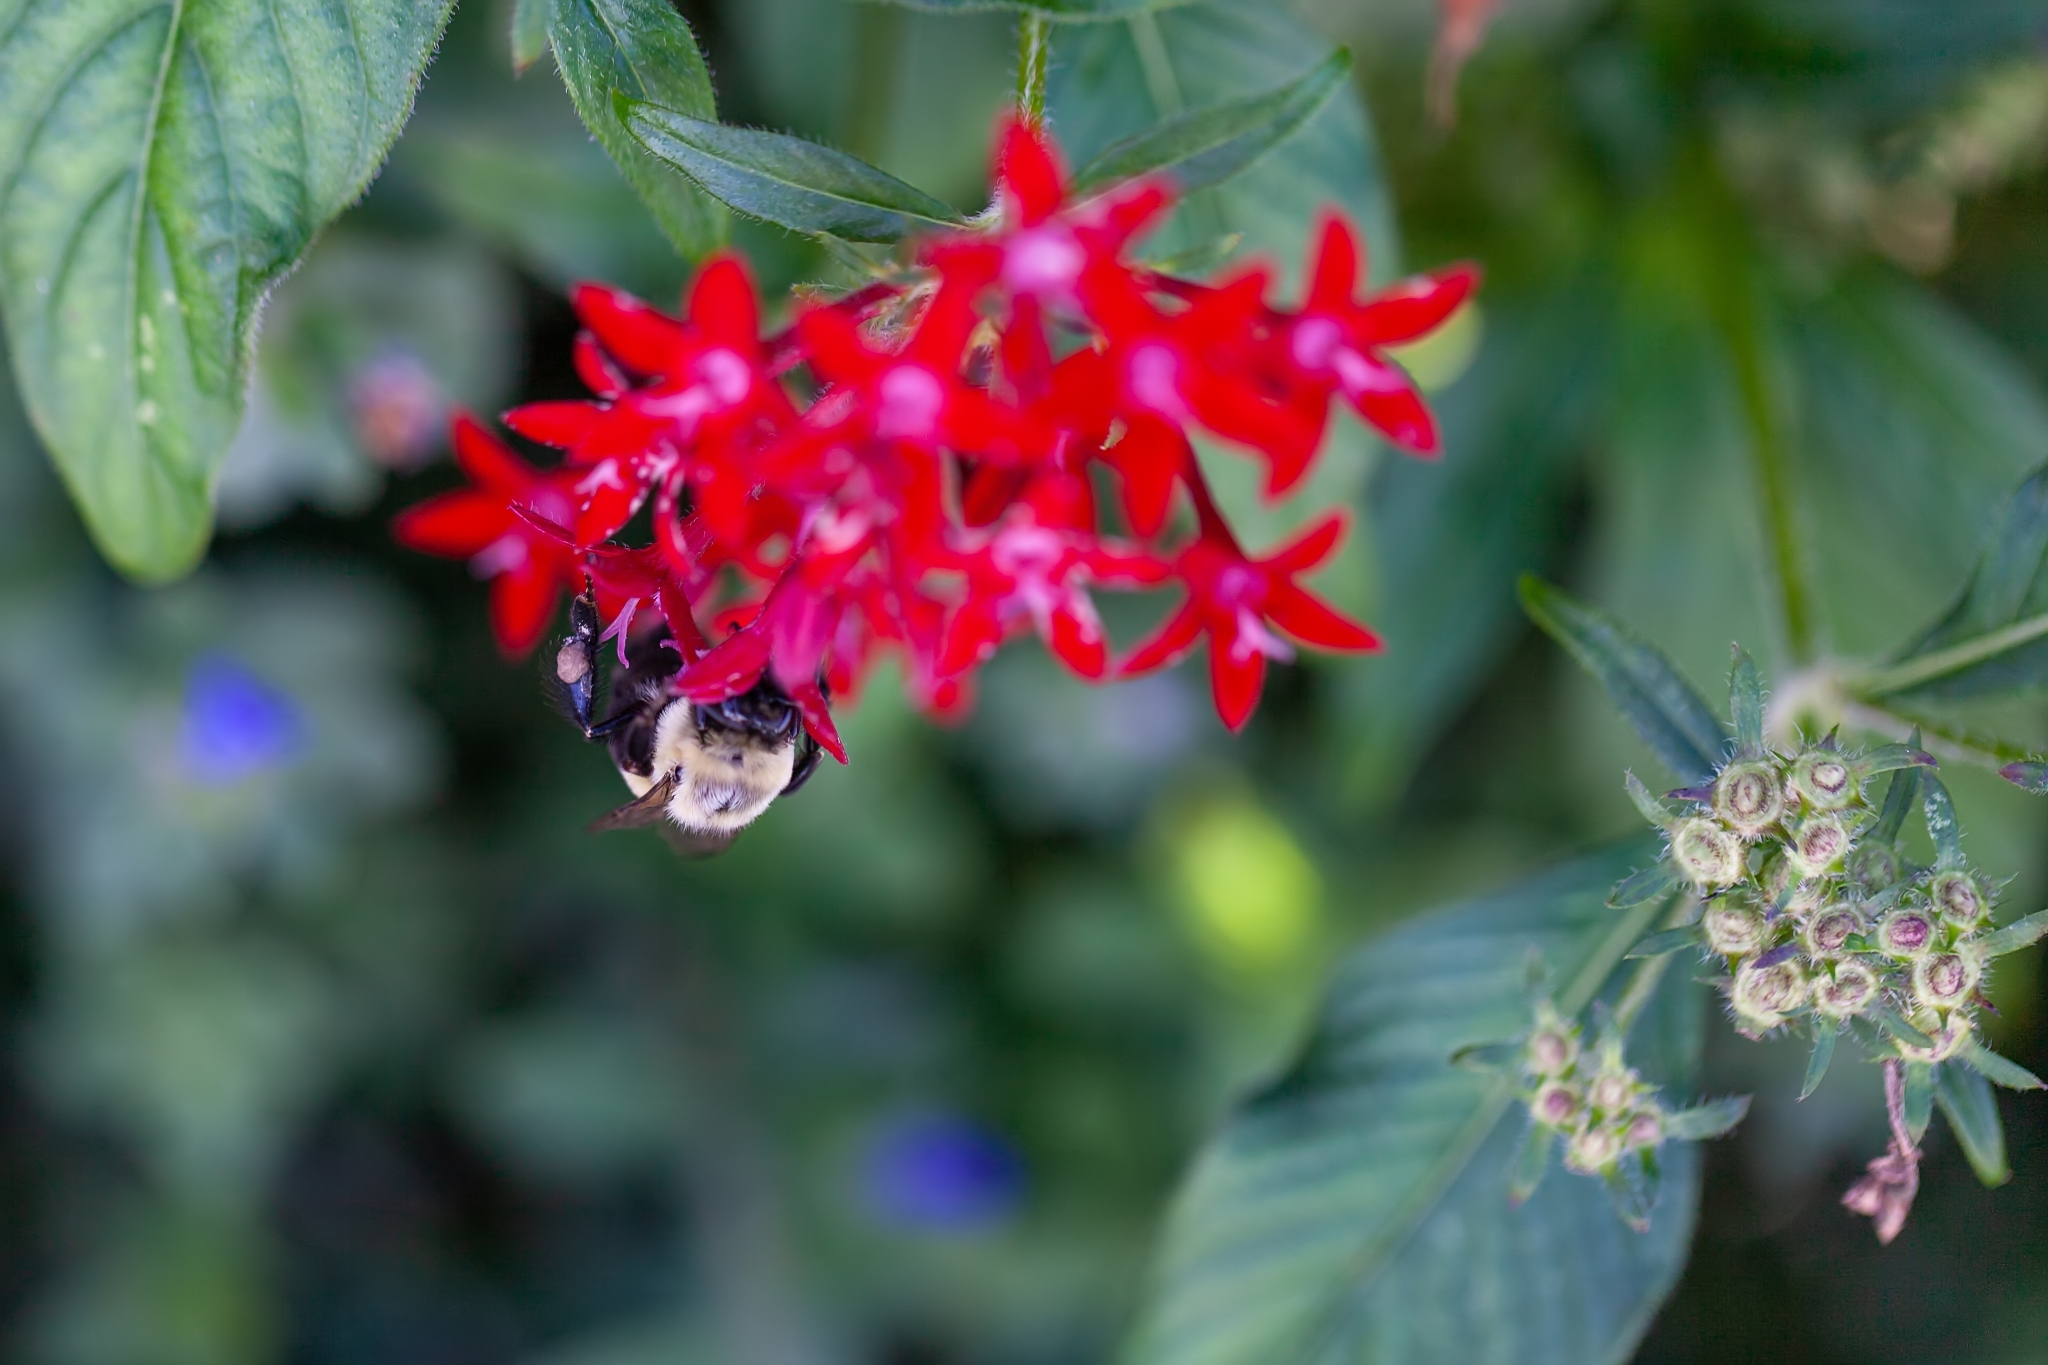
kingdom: Animalia
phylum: Arthropoda
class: Insecta
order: Hymenoptera
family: Apidae
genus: Bombus
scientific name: Bombus impatiens
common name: Common eastern bumble bee
